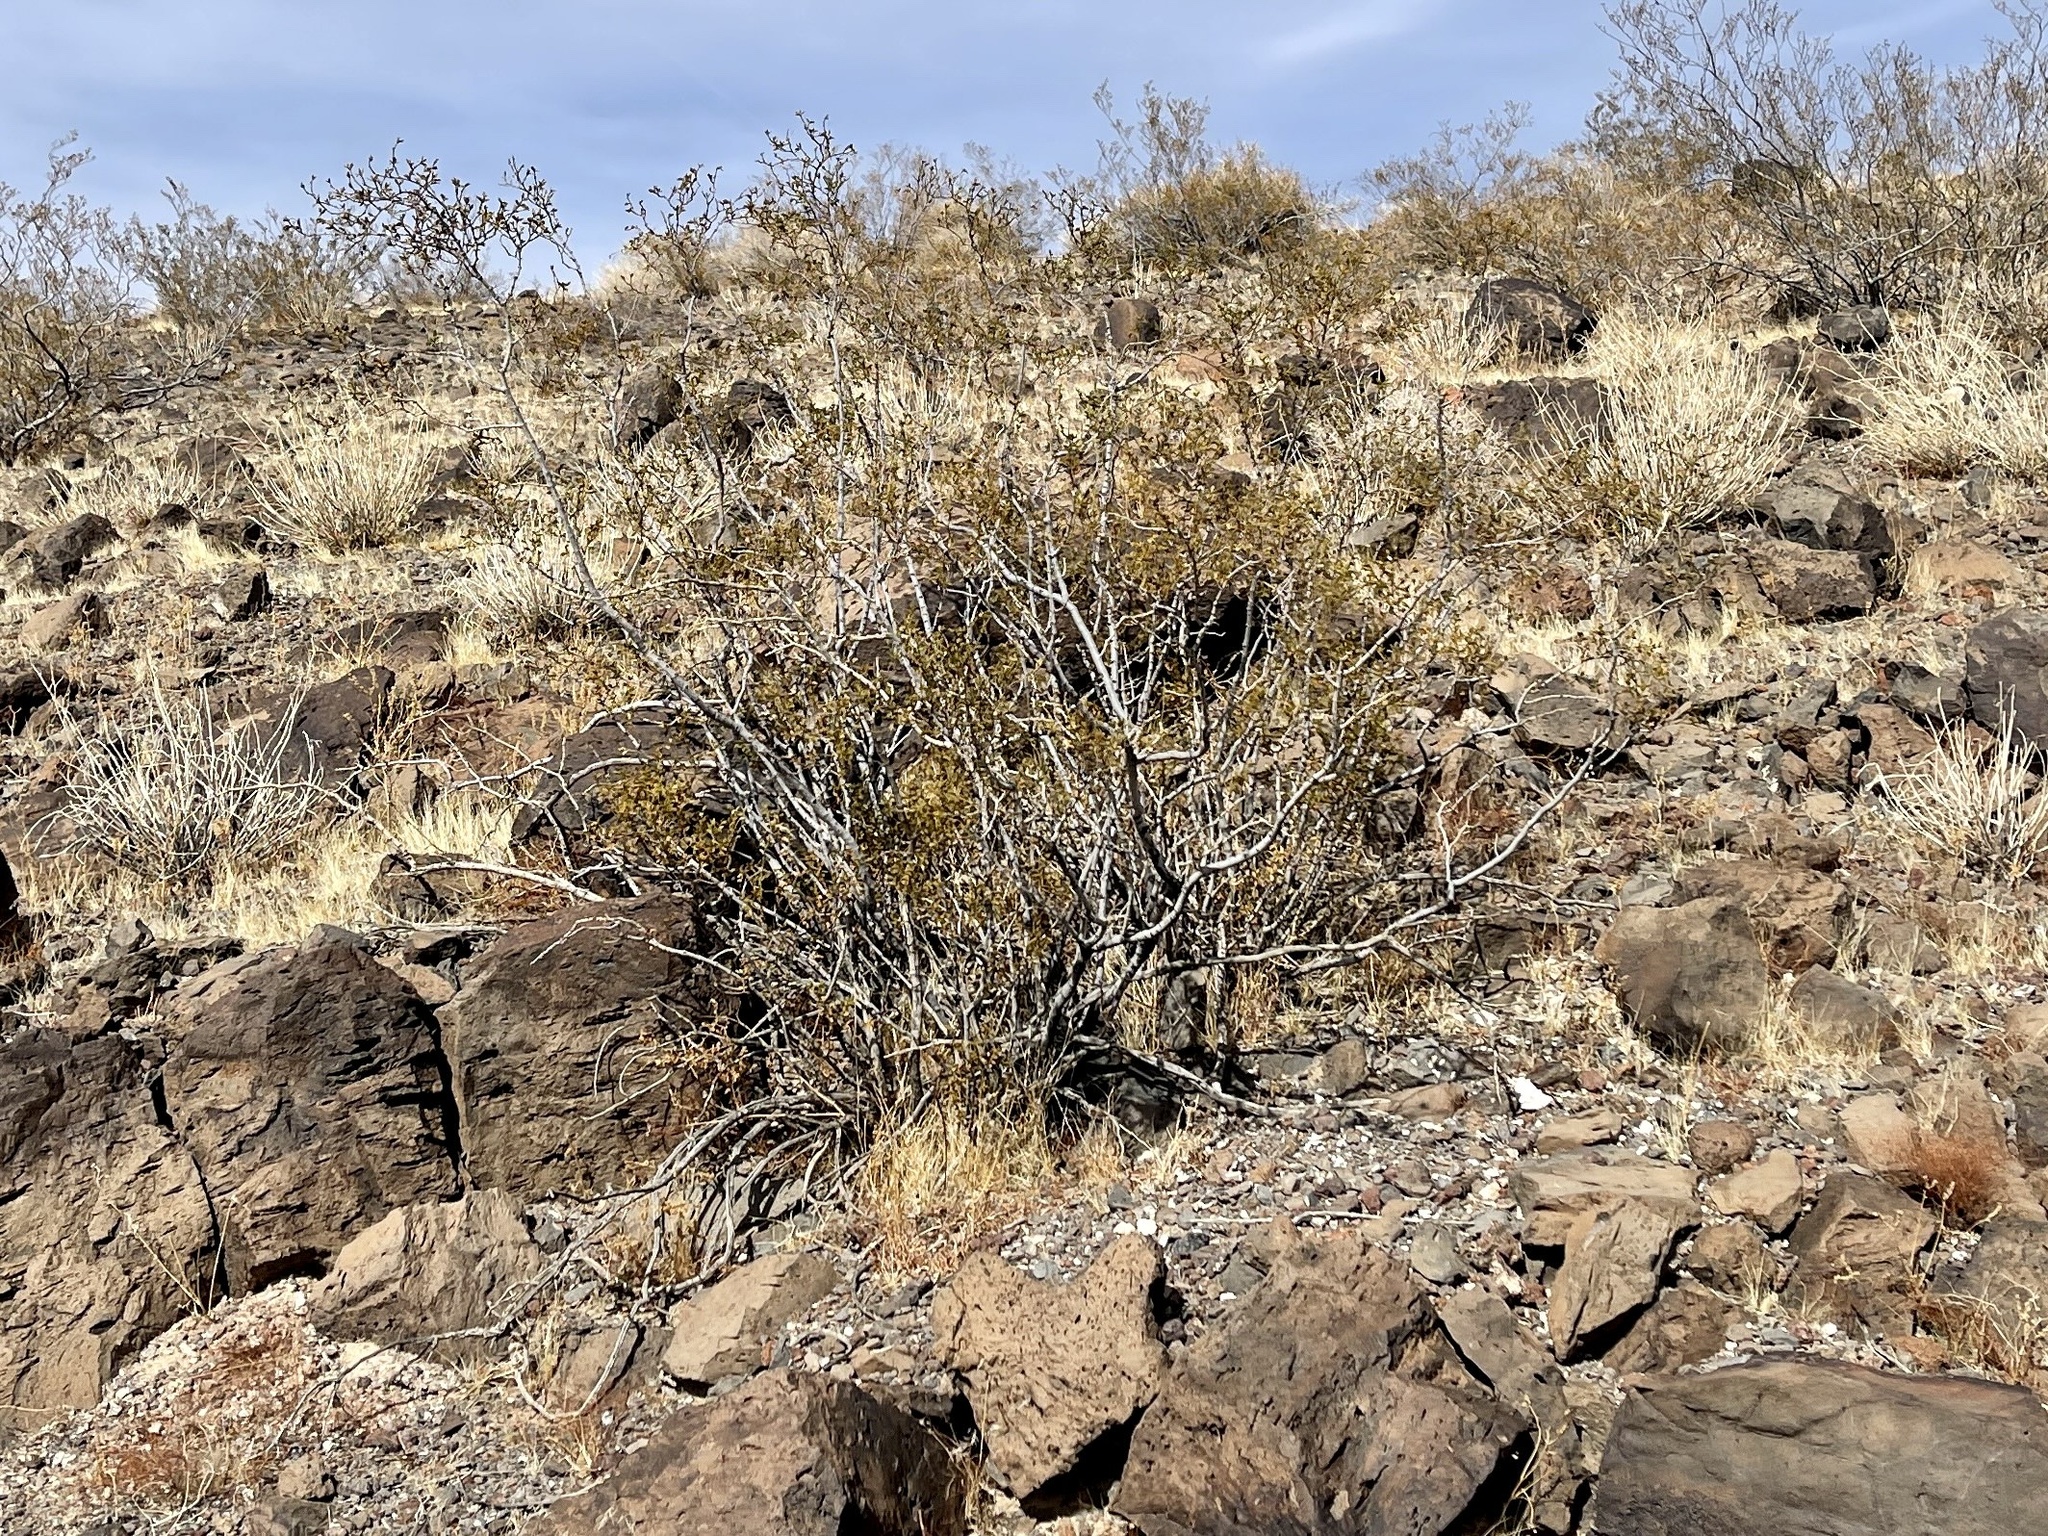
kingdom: Plantae
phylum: Tracheophyta
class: Magnoliopsida
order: Zygophyllales
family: Zygophyllaceae
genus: Larrea
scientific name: Larrea tridentata
